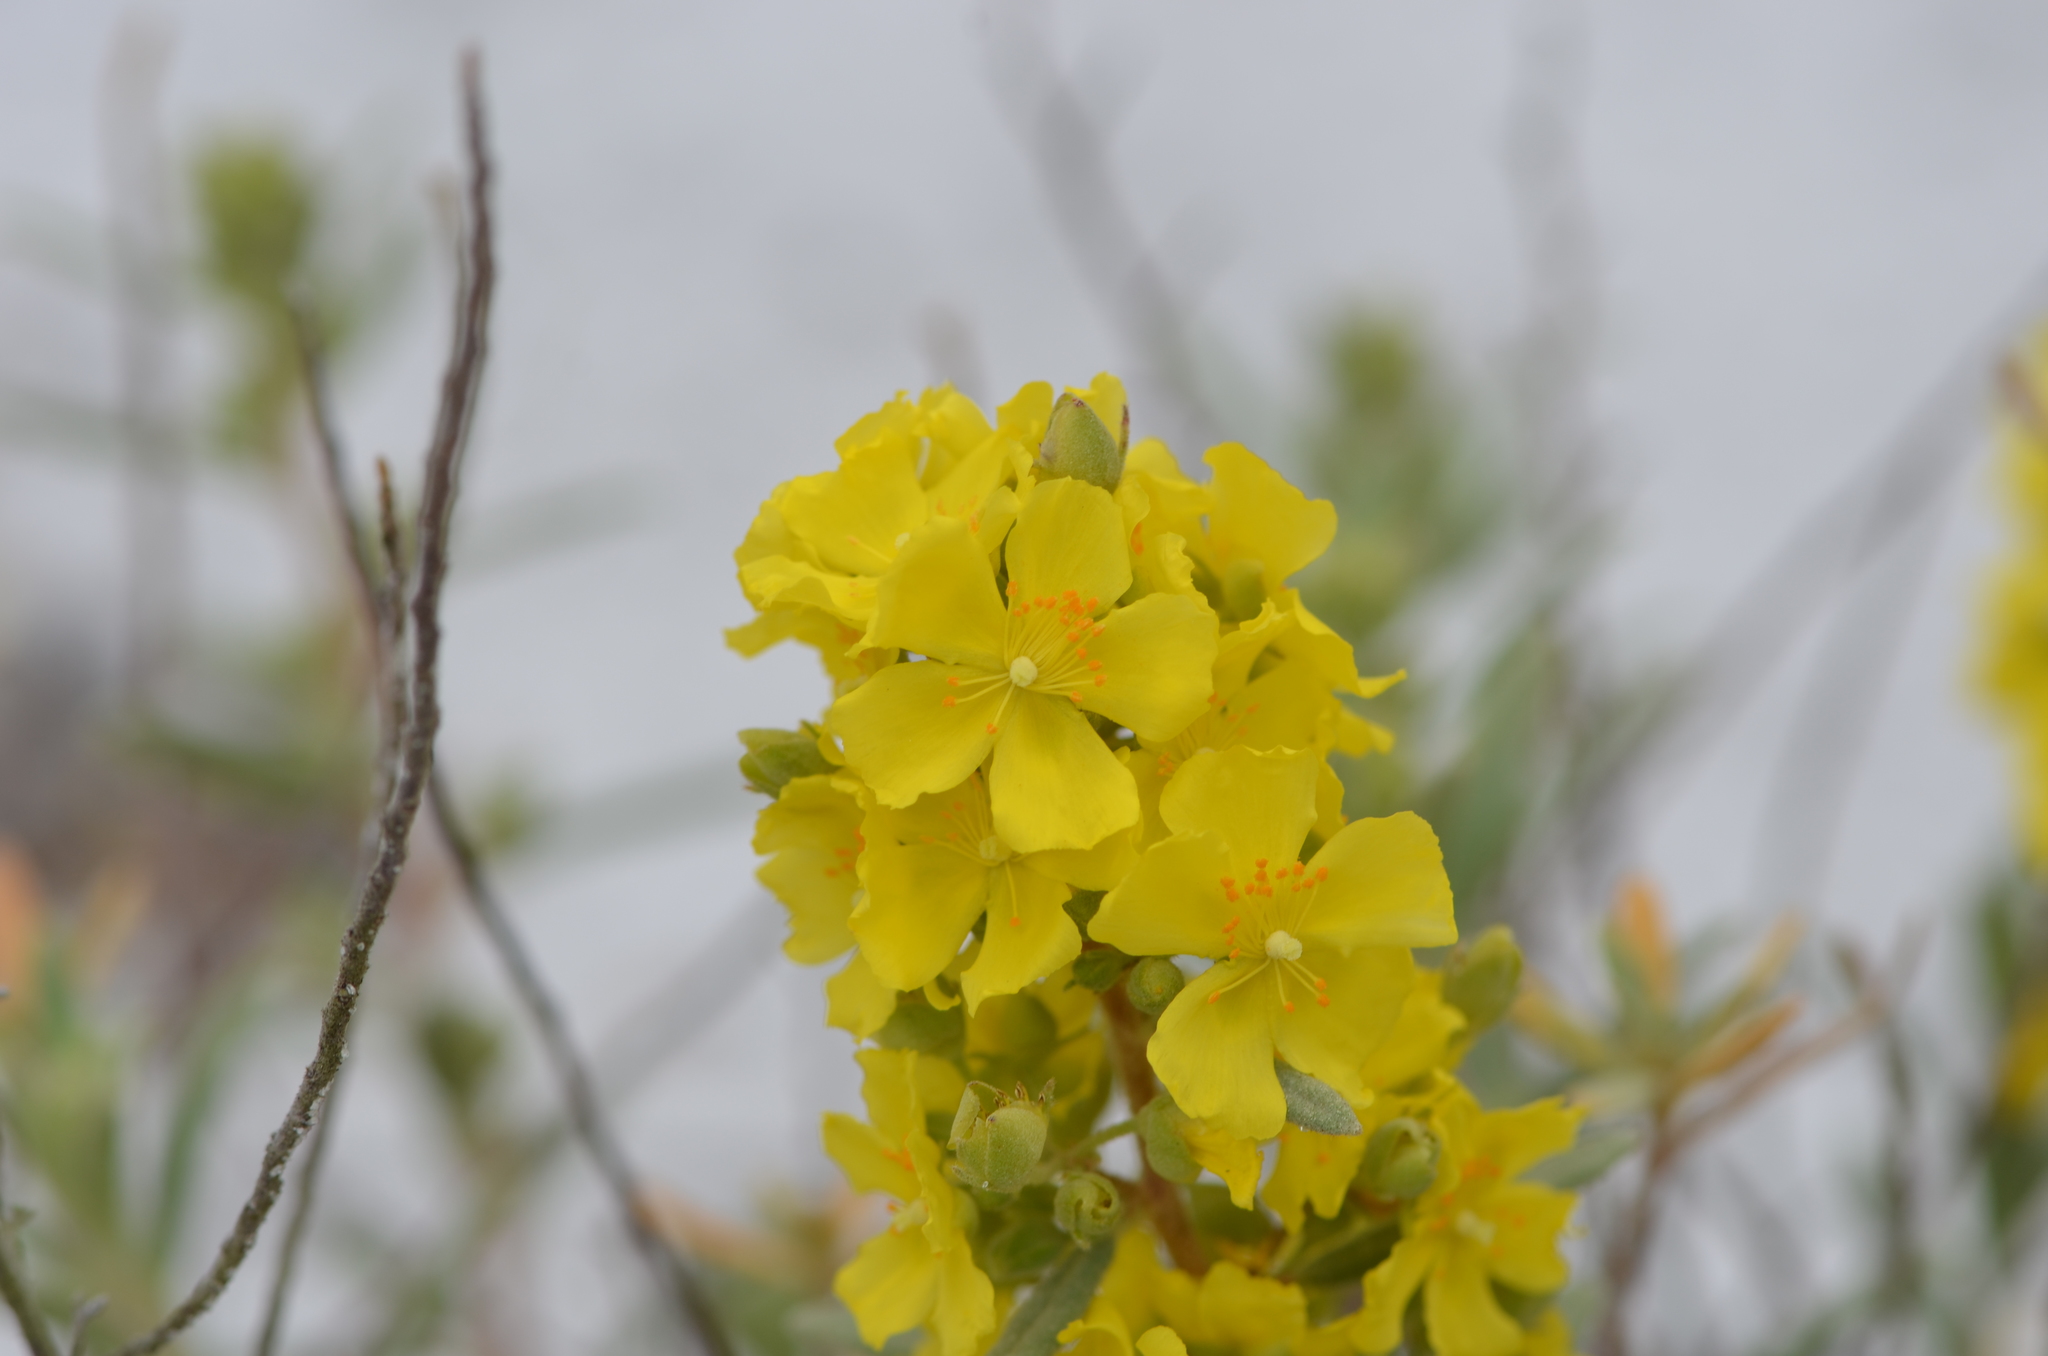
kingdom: Plantae
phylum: Tracheophyta
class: Magnoliopsida
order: Malvales
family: Cistaceae
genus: Crocanthemum
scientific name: Crocanthemum nashii
